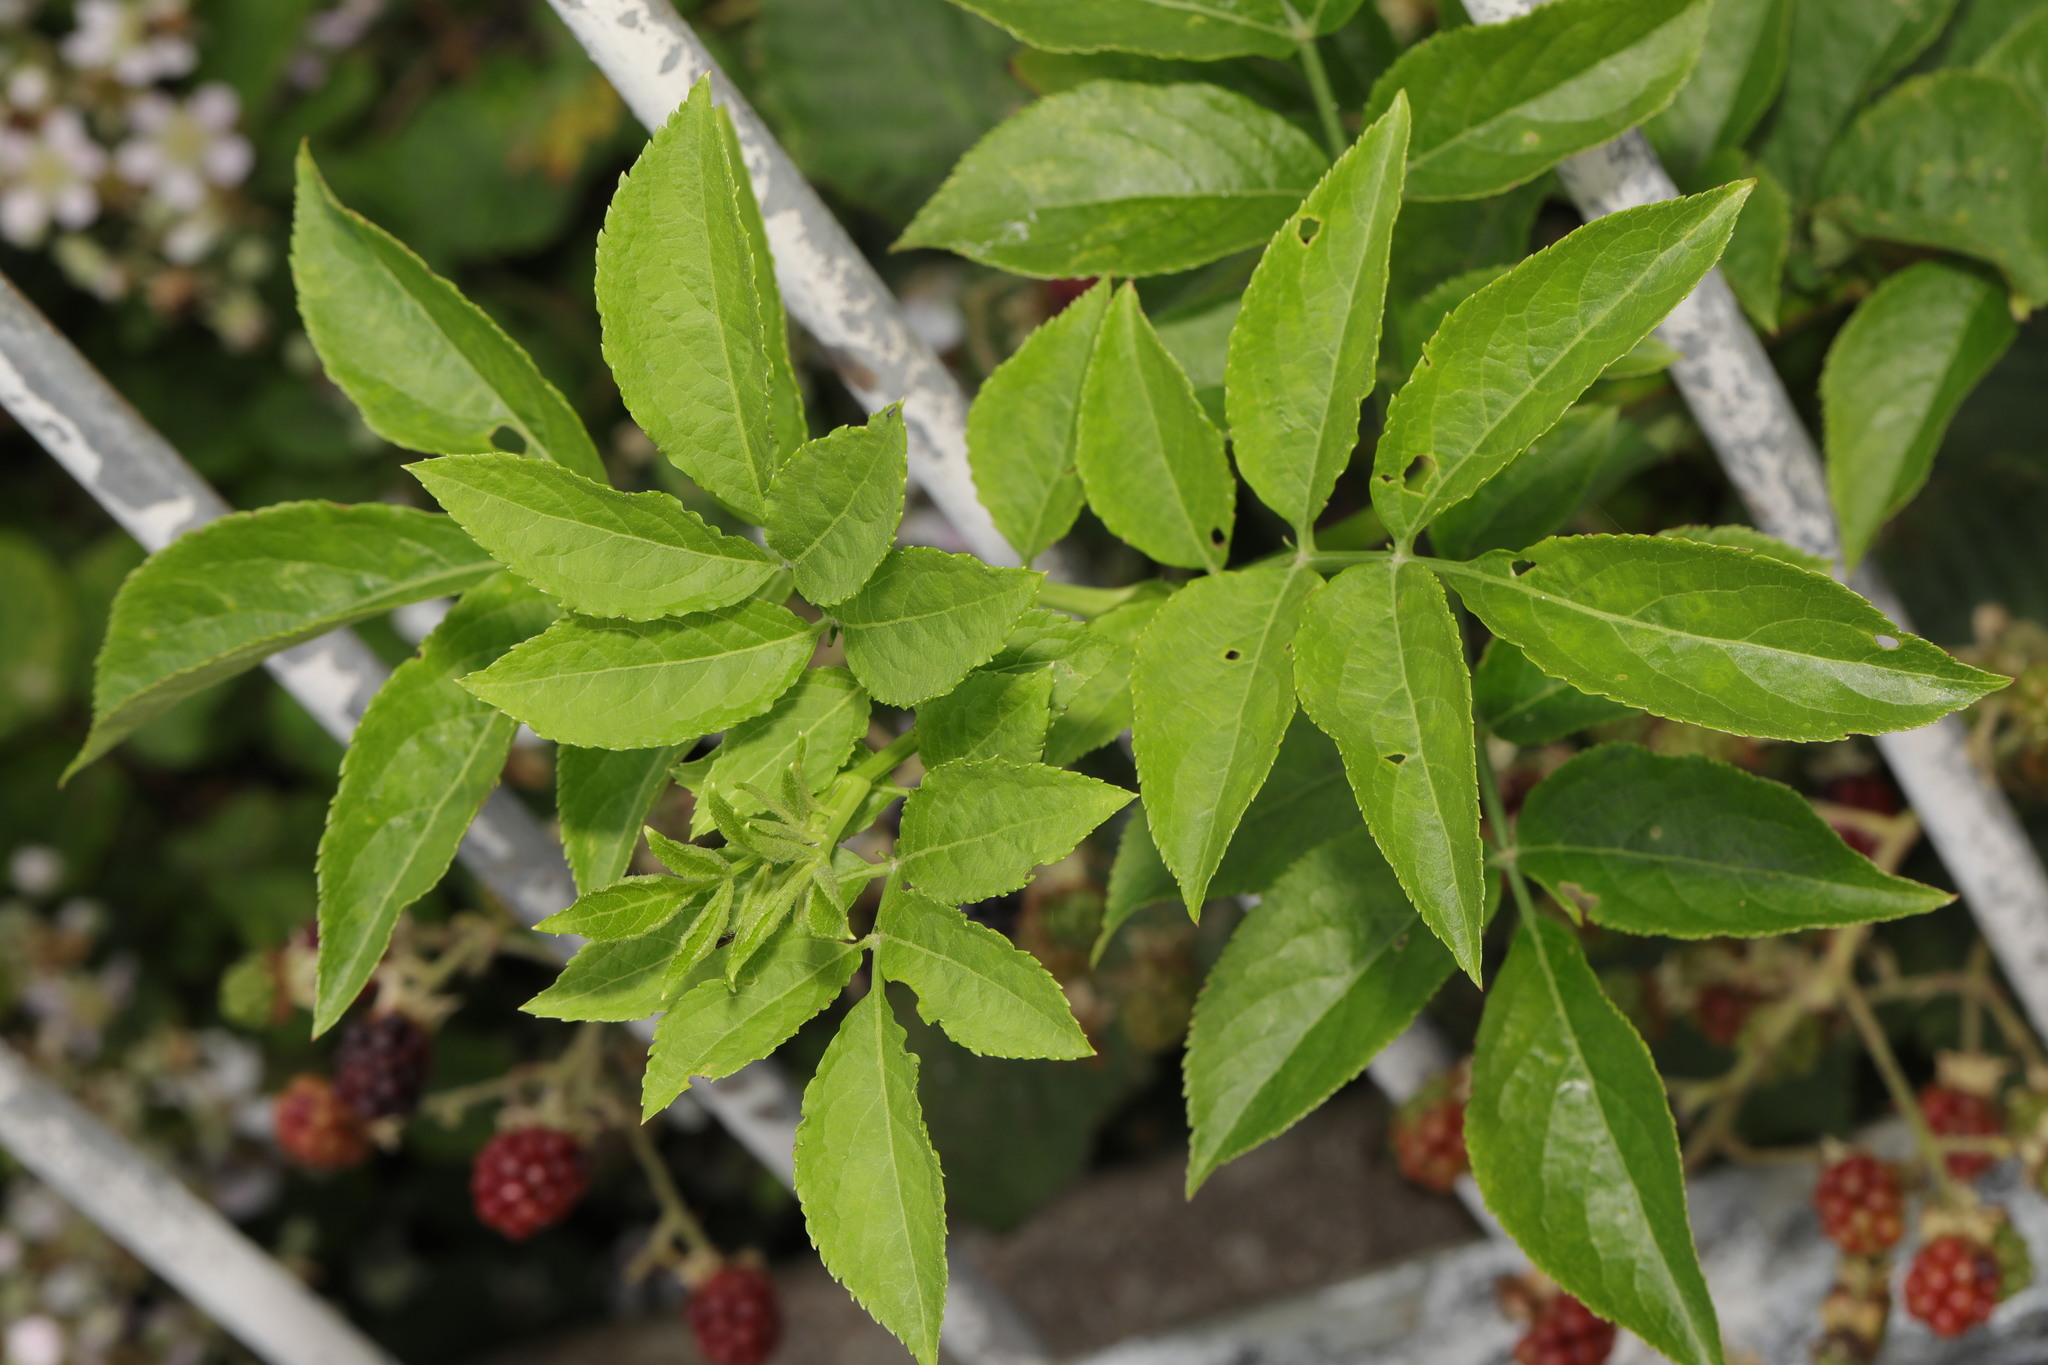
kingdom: Plantae
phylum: Tracheophyta
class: Magnoliopsida
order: Dipsacales
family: Viburnaceae
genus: Sambucus
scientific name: Sambucus nigra
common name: Elder
